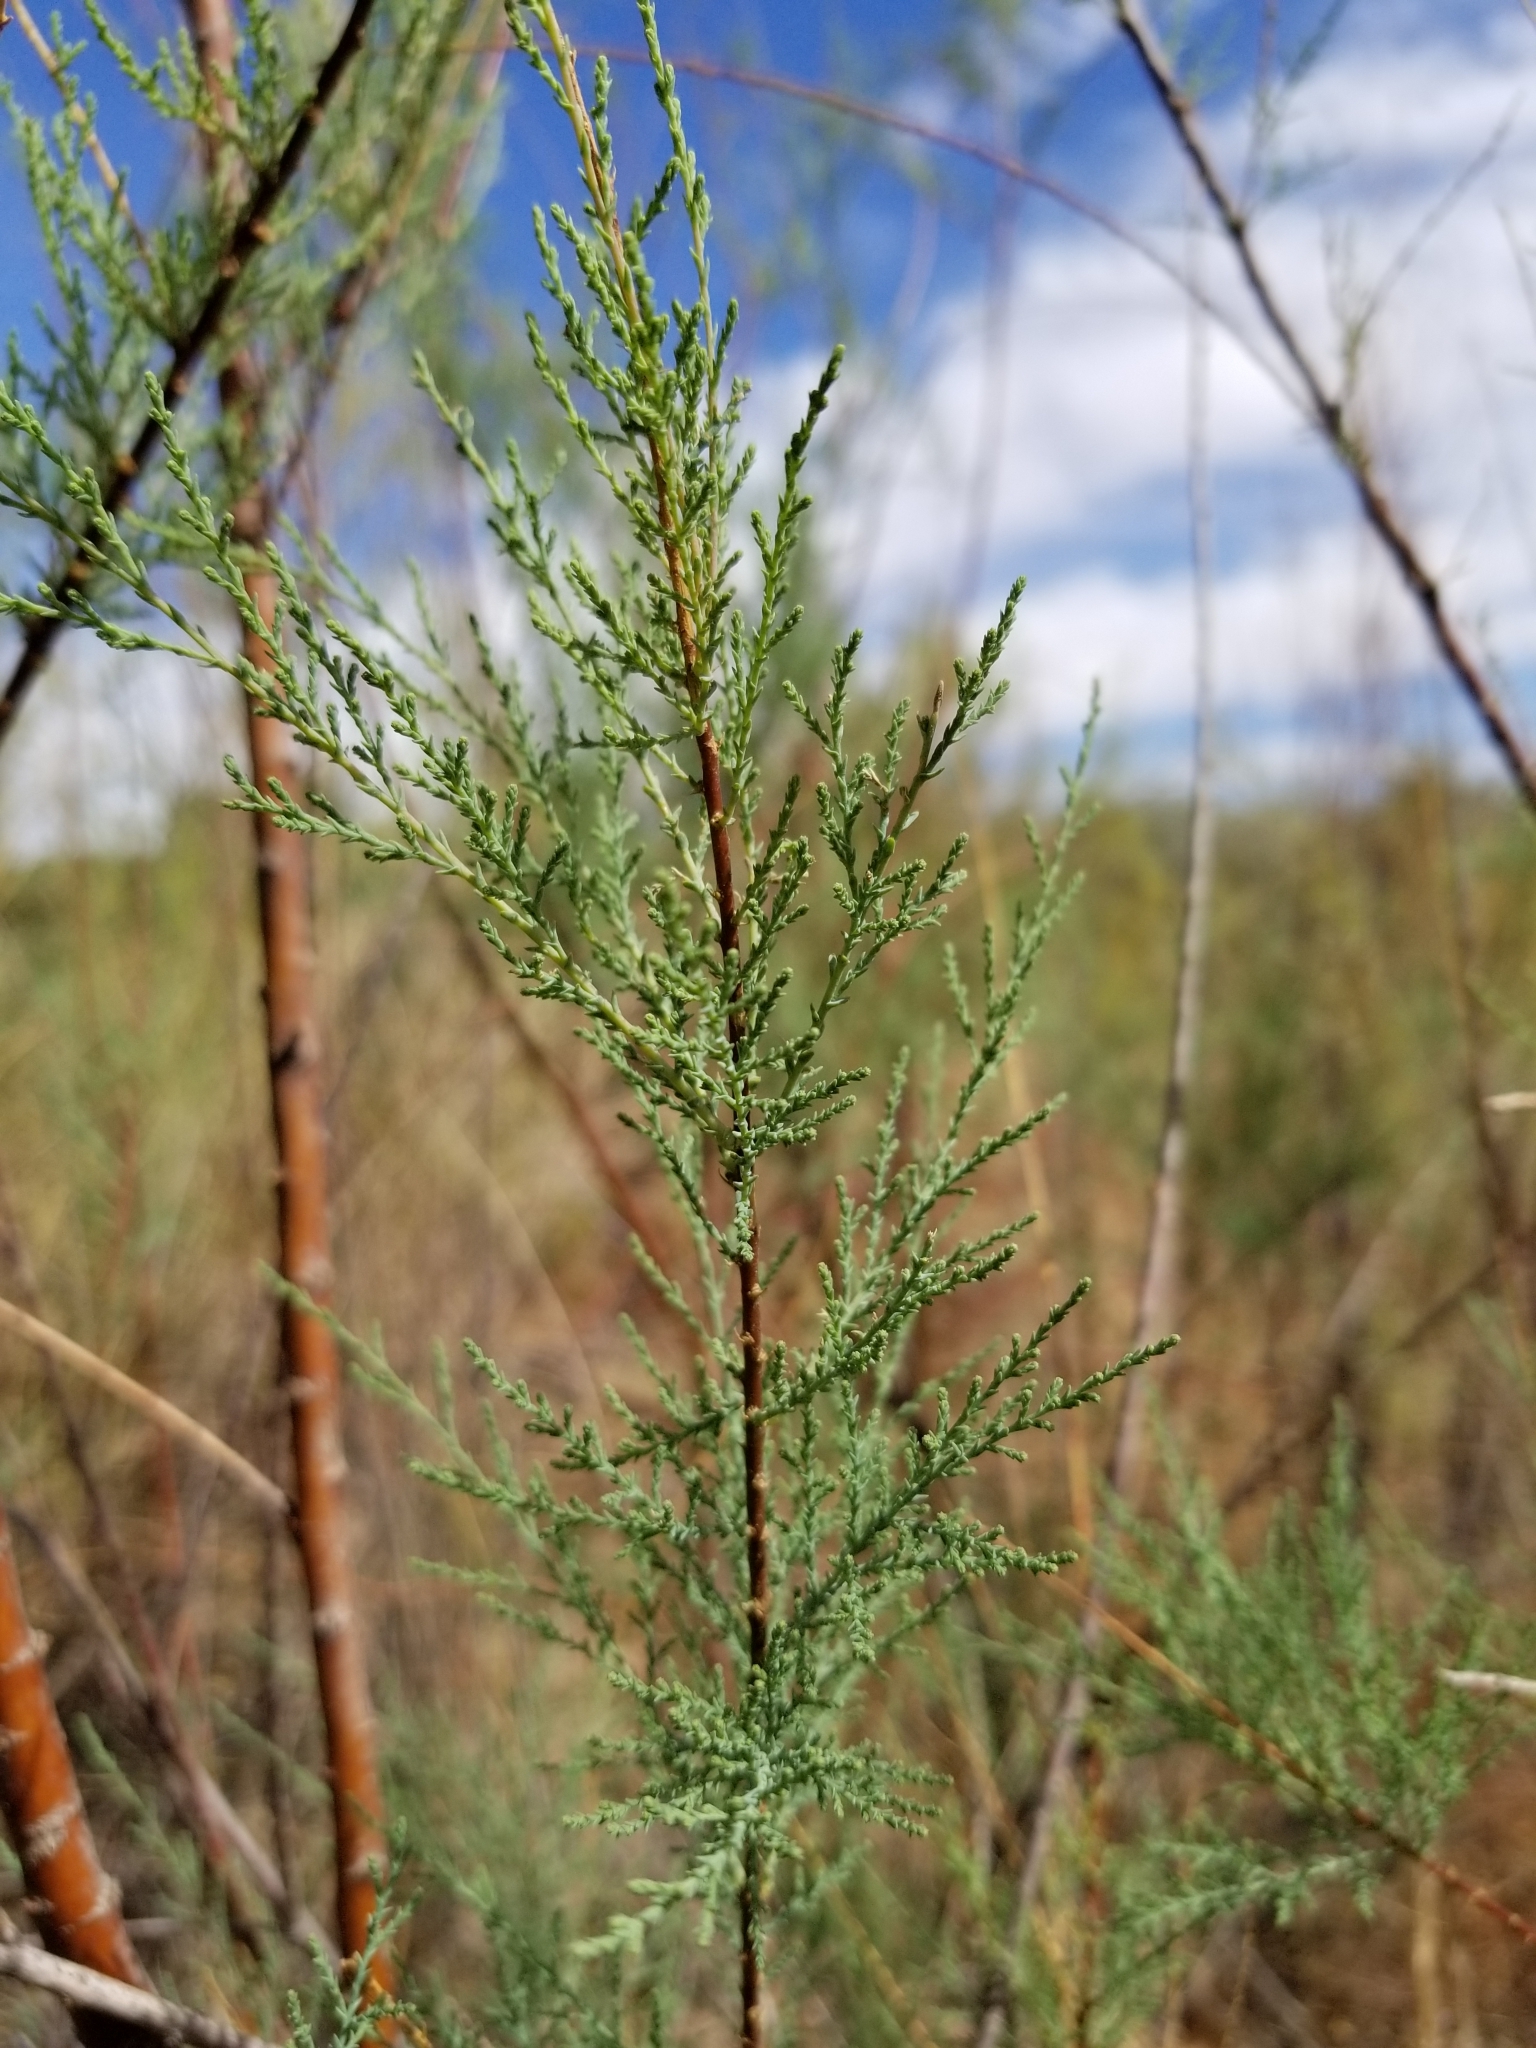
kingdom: Plantae
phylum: Tracheophyta
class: Magnoliopsida
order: Caryophyllales
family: Tamaricaceae
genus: Tamarix
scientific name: Tamarix ramosissima
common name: Pink tamarisk
